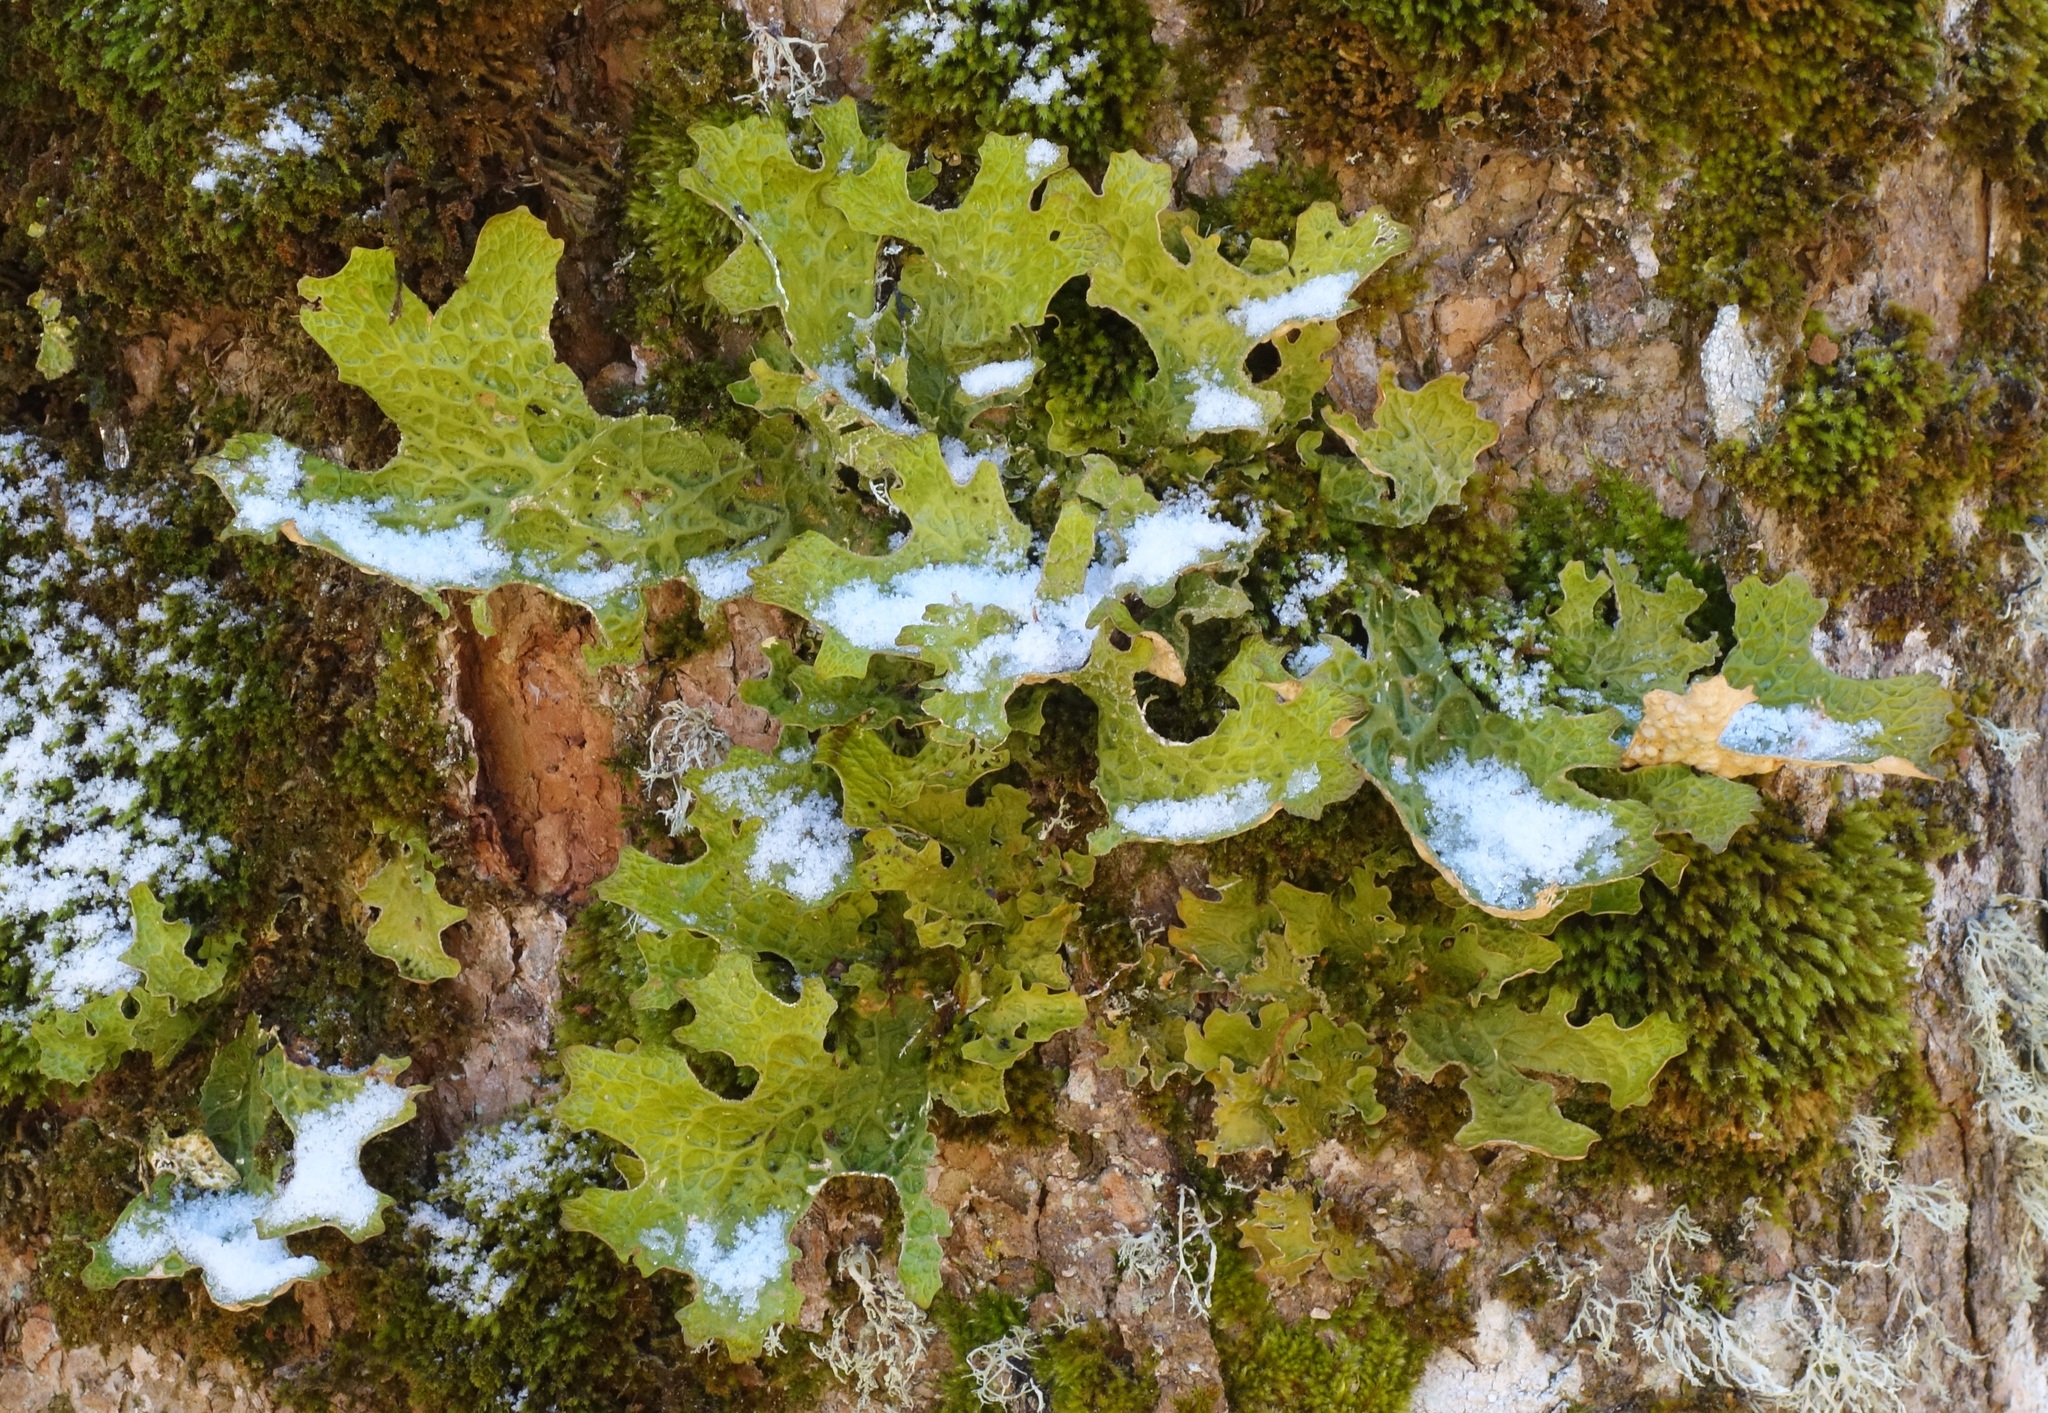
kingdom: Fungi
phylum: Ascomycota
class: Lecanoromycetes
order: Peltigerales
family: Lobariaceae
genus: Lobaria
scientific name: Lobaria pulmonaria
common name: Lungwort
